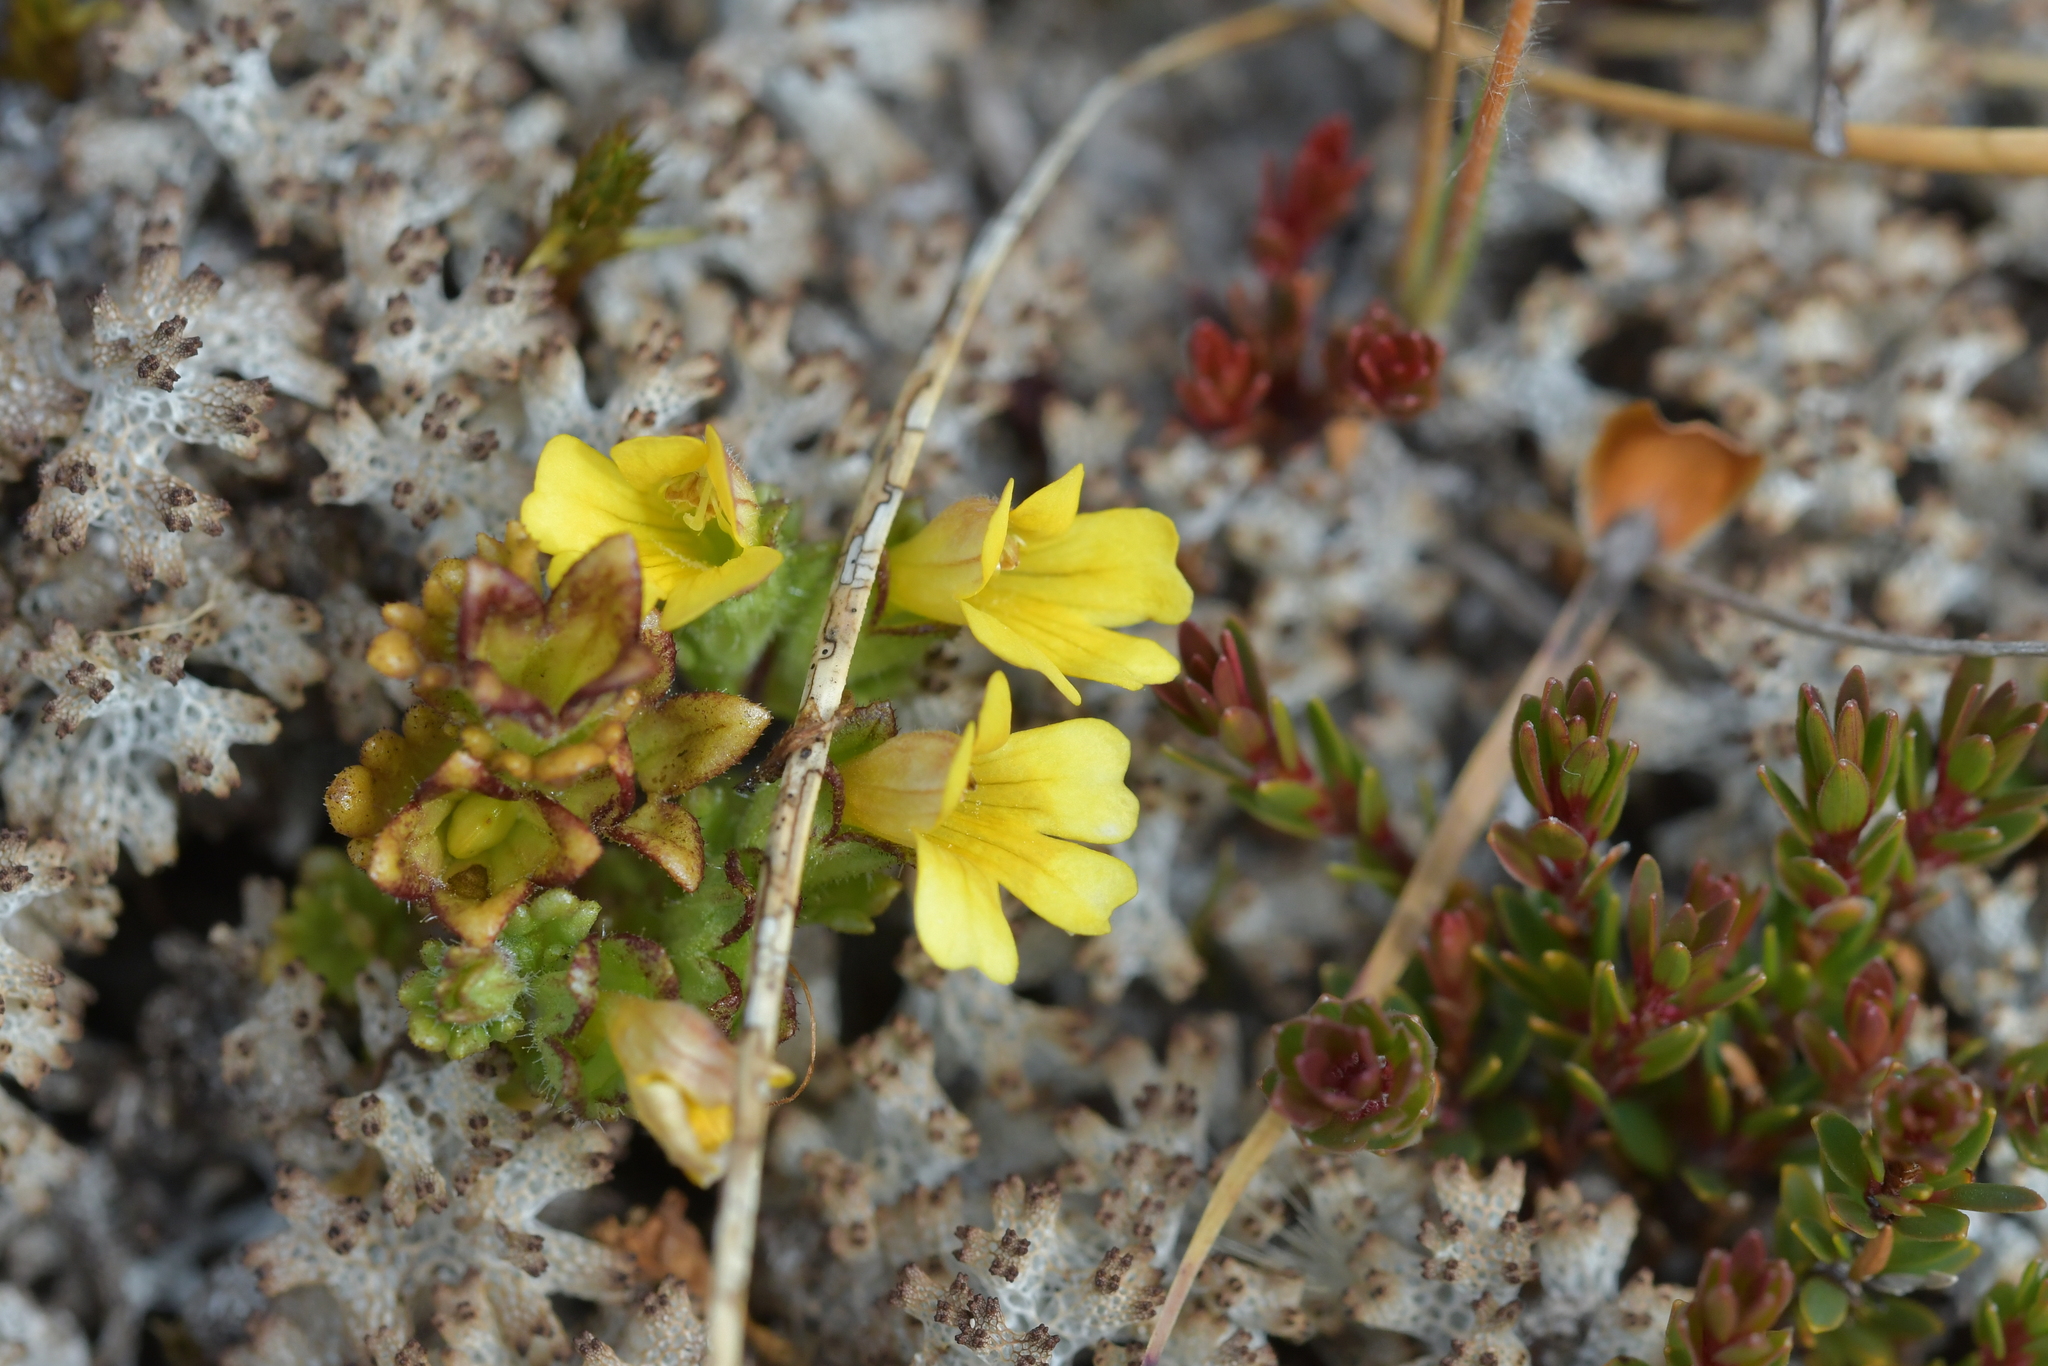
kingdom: Plantae
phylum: Tracheophyta
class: Magnoliopsida
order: Lamiales
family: Orobanchaceae
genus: Euphrasia
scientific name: Euphrasia cockayneana
